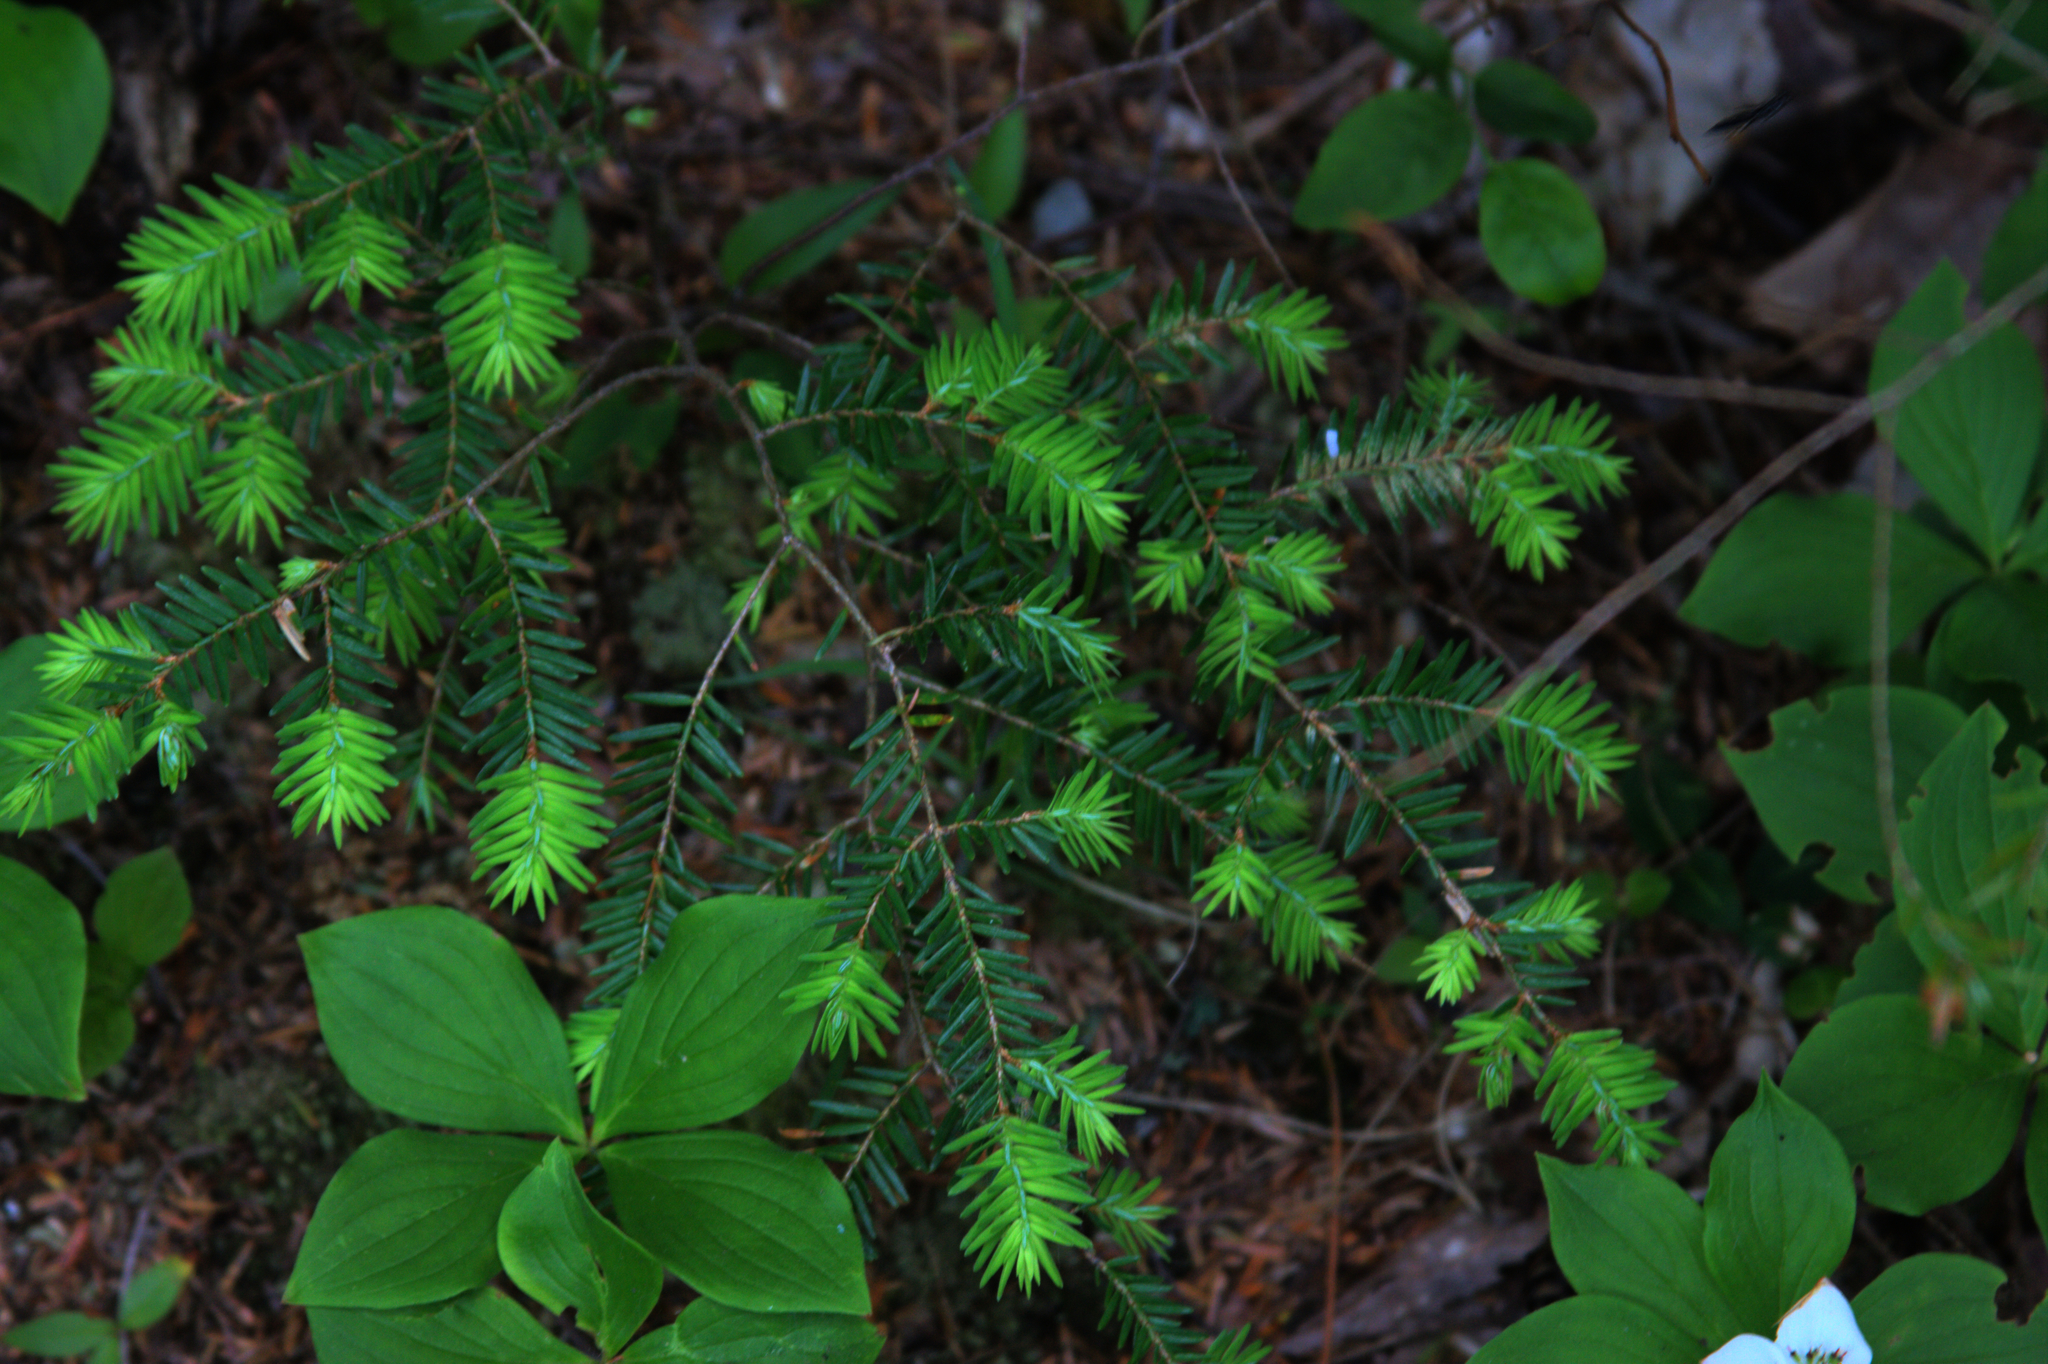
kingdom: Plantae
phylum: Tracheophyta
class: Pinopsida
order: Pinales
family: Pinaceae
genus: Tsuga
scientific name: Tsuga canadensis
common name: Eastern hemlock
